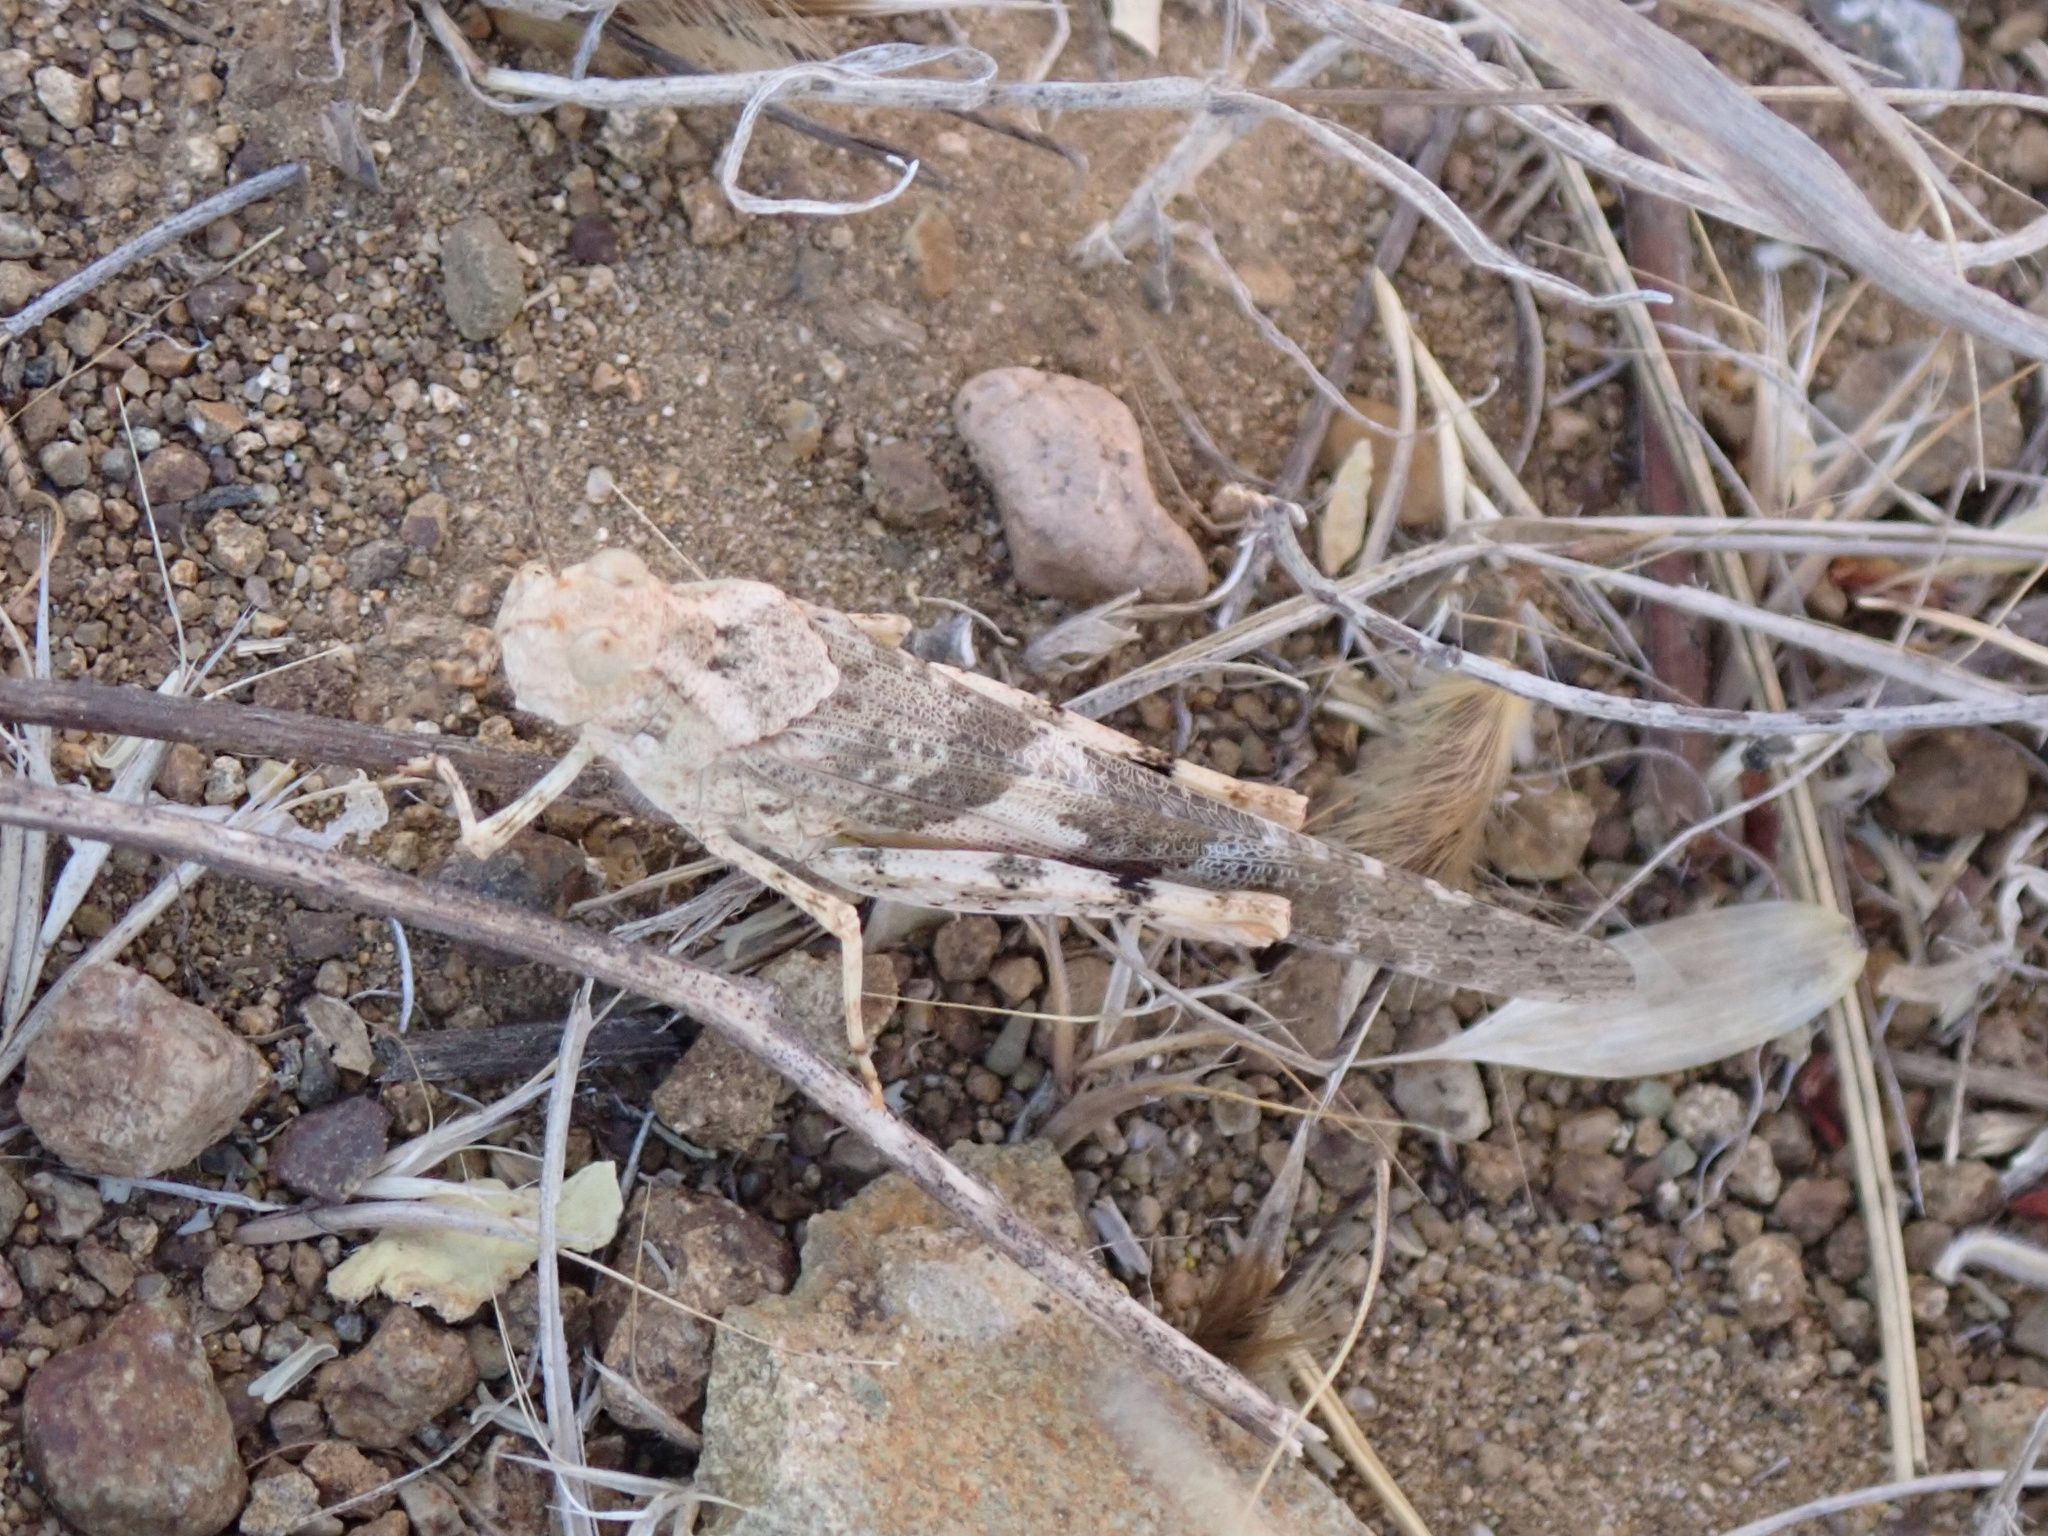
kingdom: Animalia
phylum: Arthropoda
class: Insecta
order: Orthoptera
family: Acrididae
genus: Trimerotropis
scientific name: Trimerotropis pallidipennis
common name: Pallid-winged grasshopper
